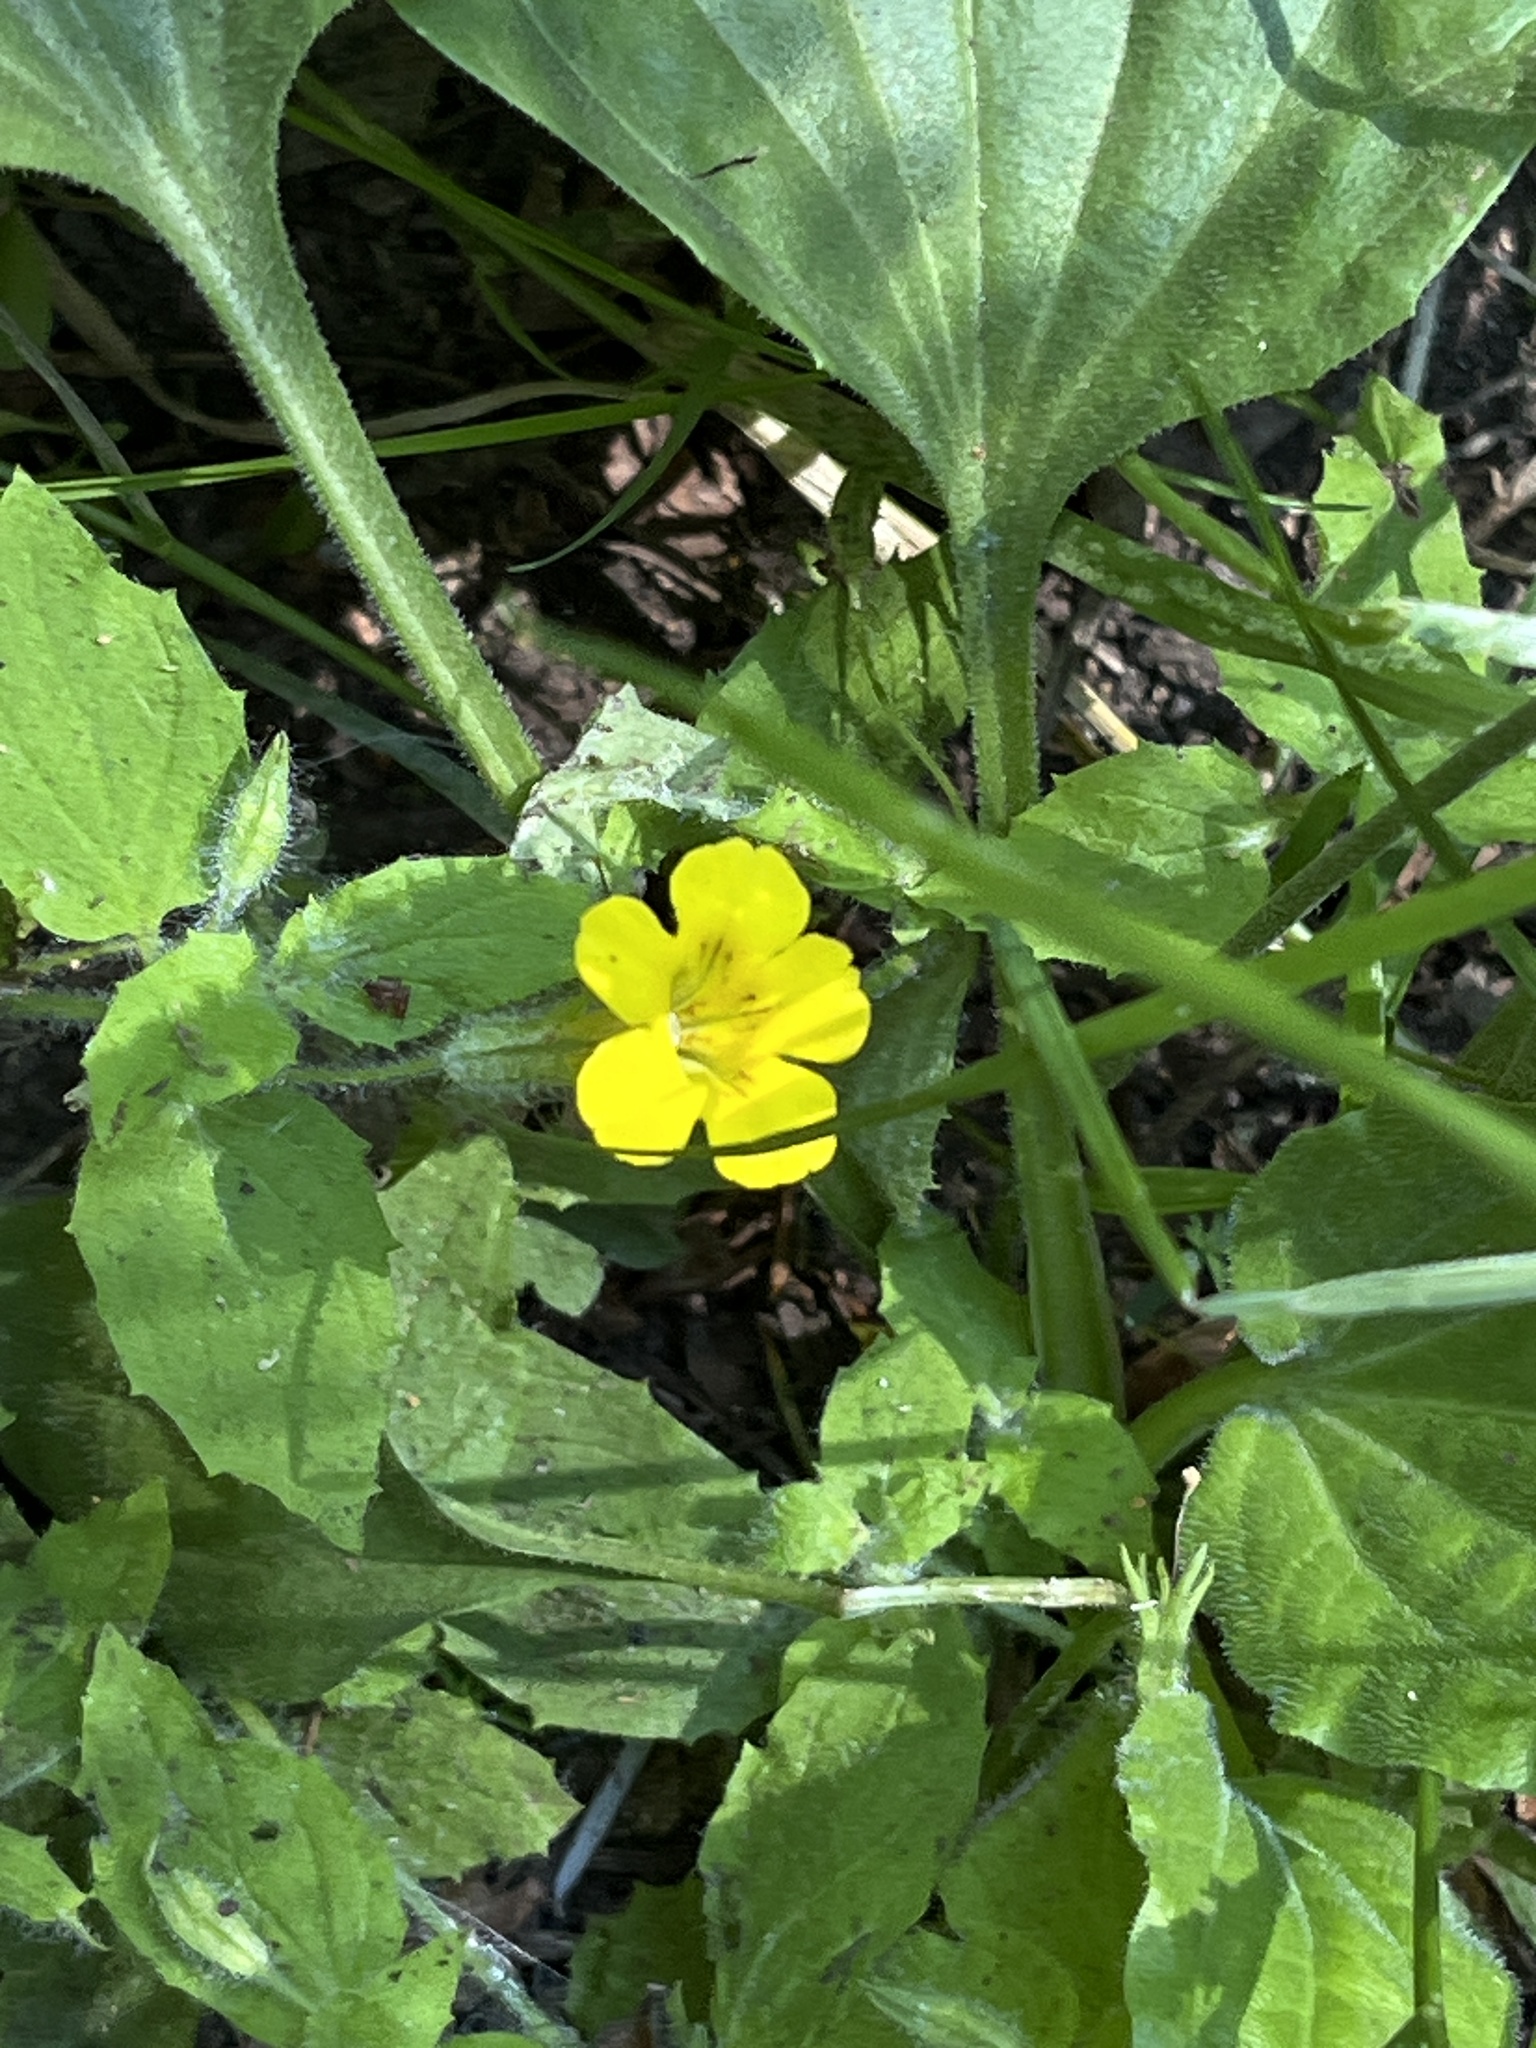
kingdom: Plantae
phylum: Tracheophyta
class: Magnoliopsida
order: Lamiales
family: Phrymaceae
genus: Erythranthe
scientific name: Erythranthe ptilota
